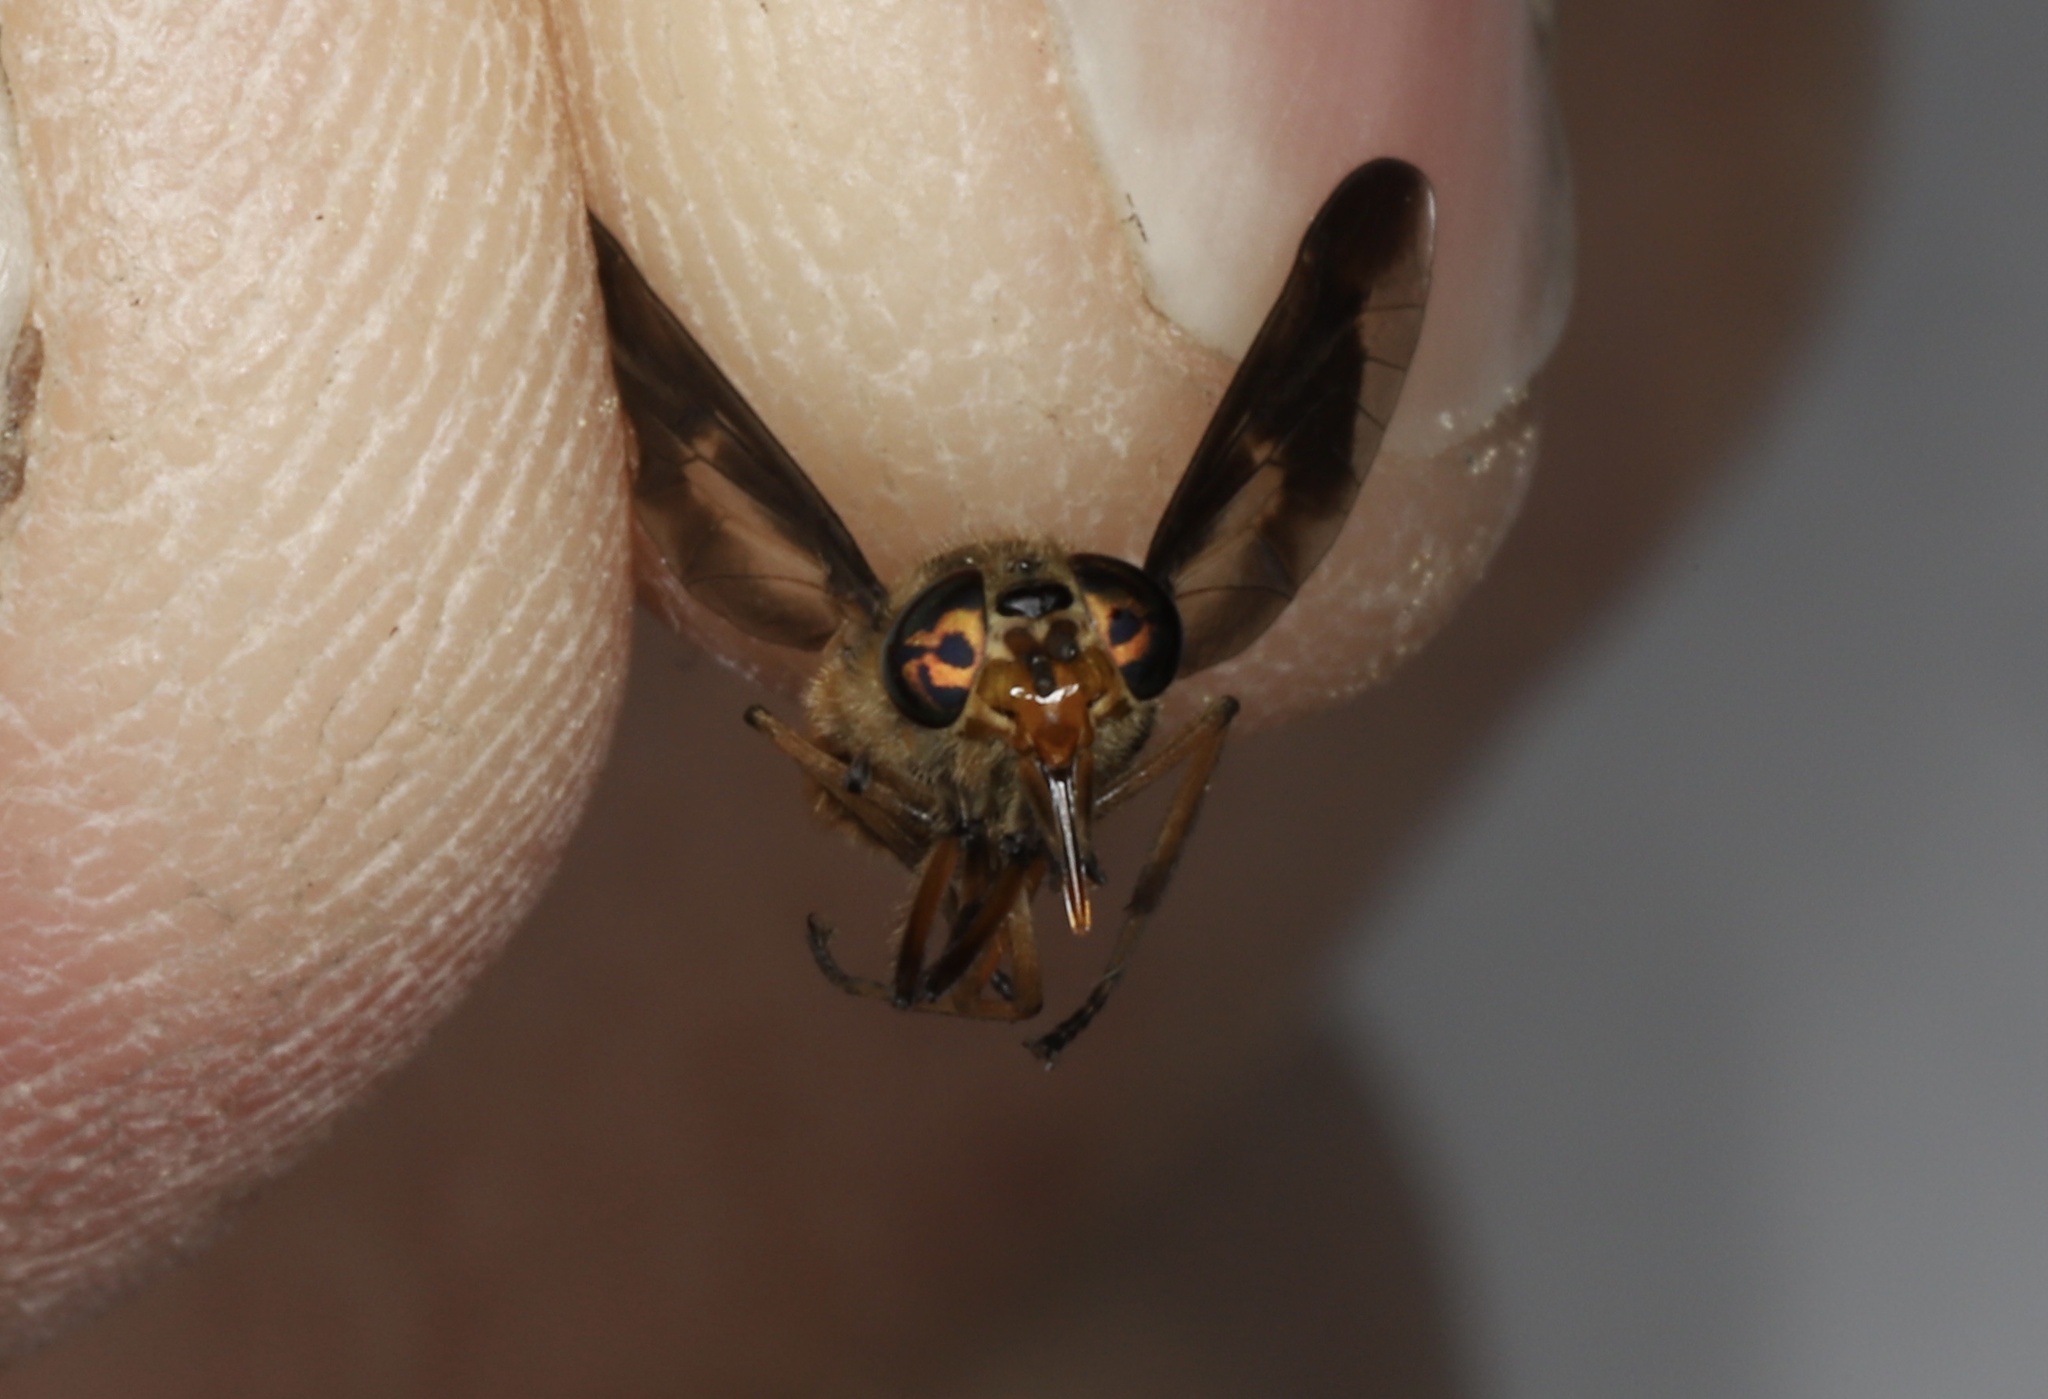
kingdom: Animalia
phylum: Arthropoda
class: Insecta
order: Diptera
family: Tabanidae
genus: Chrysops
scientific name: Chrysops indus
